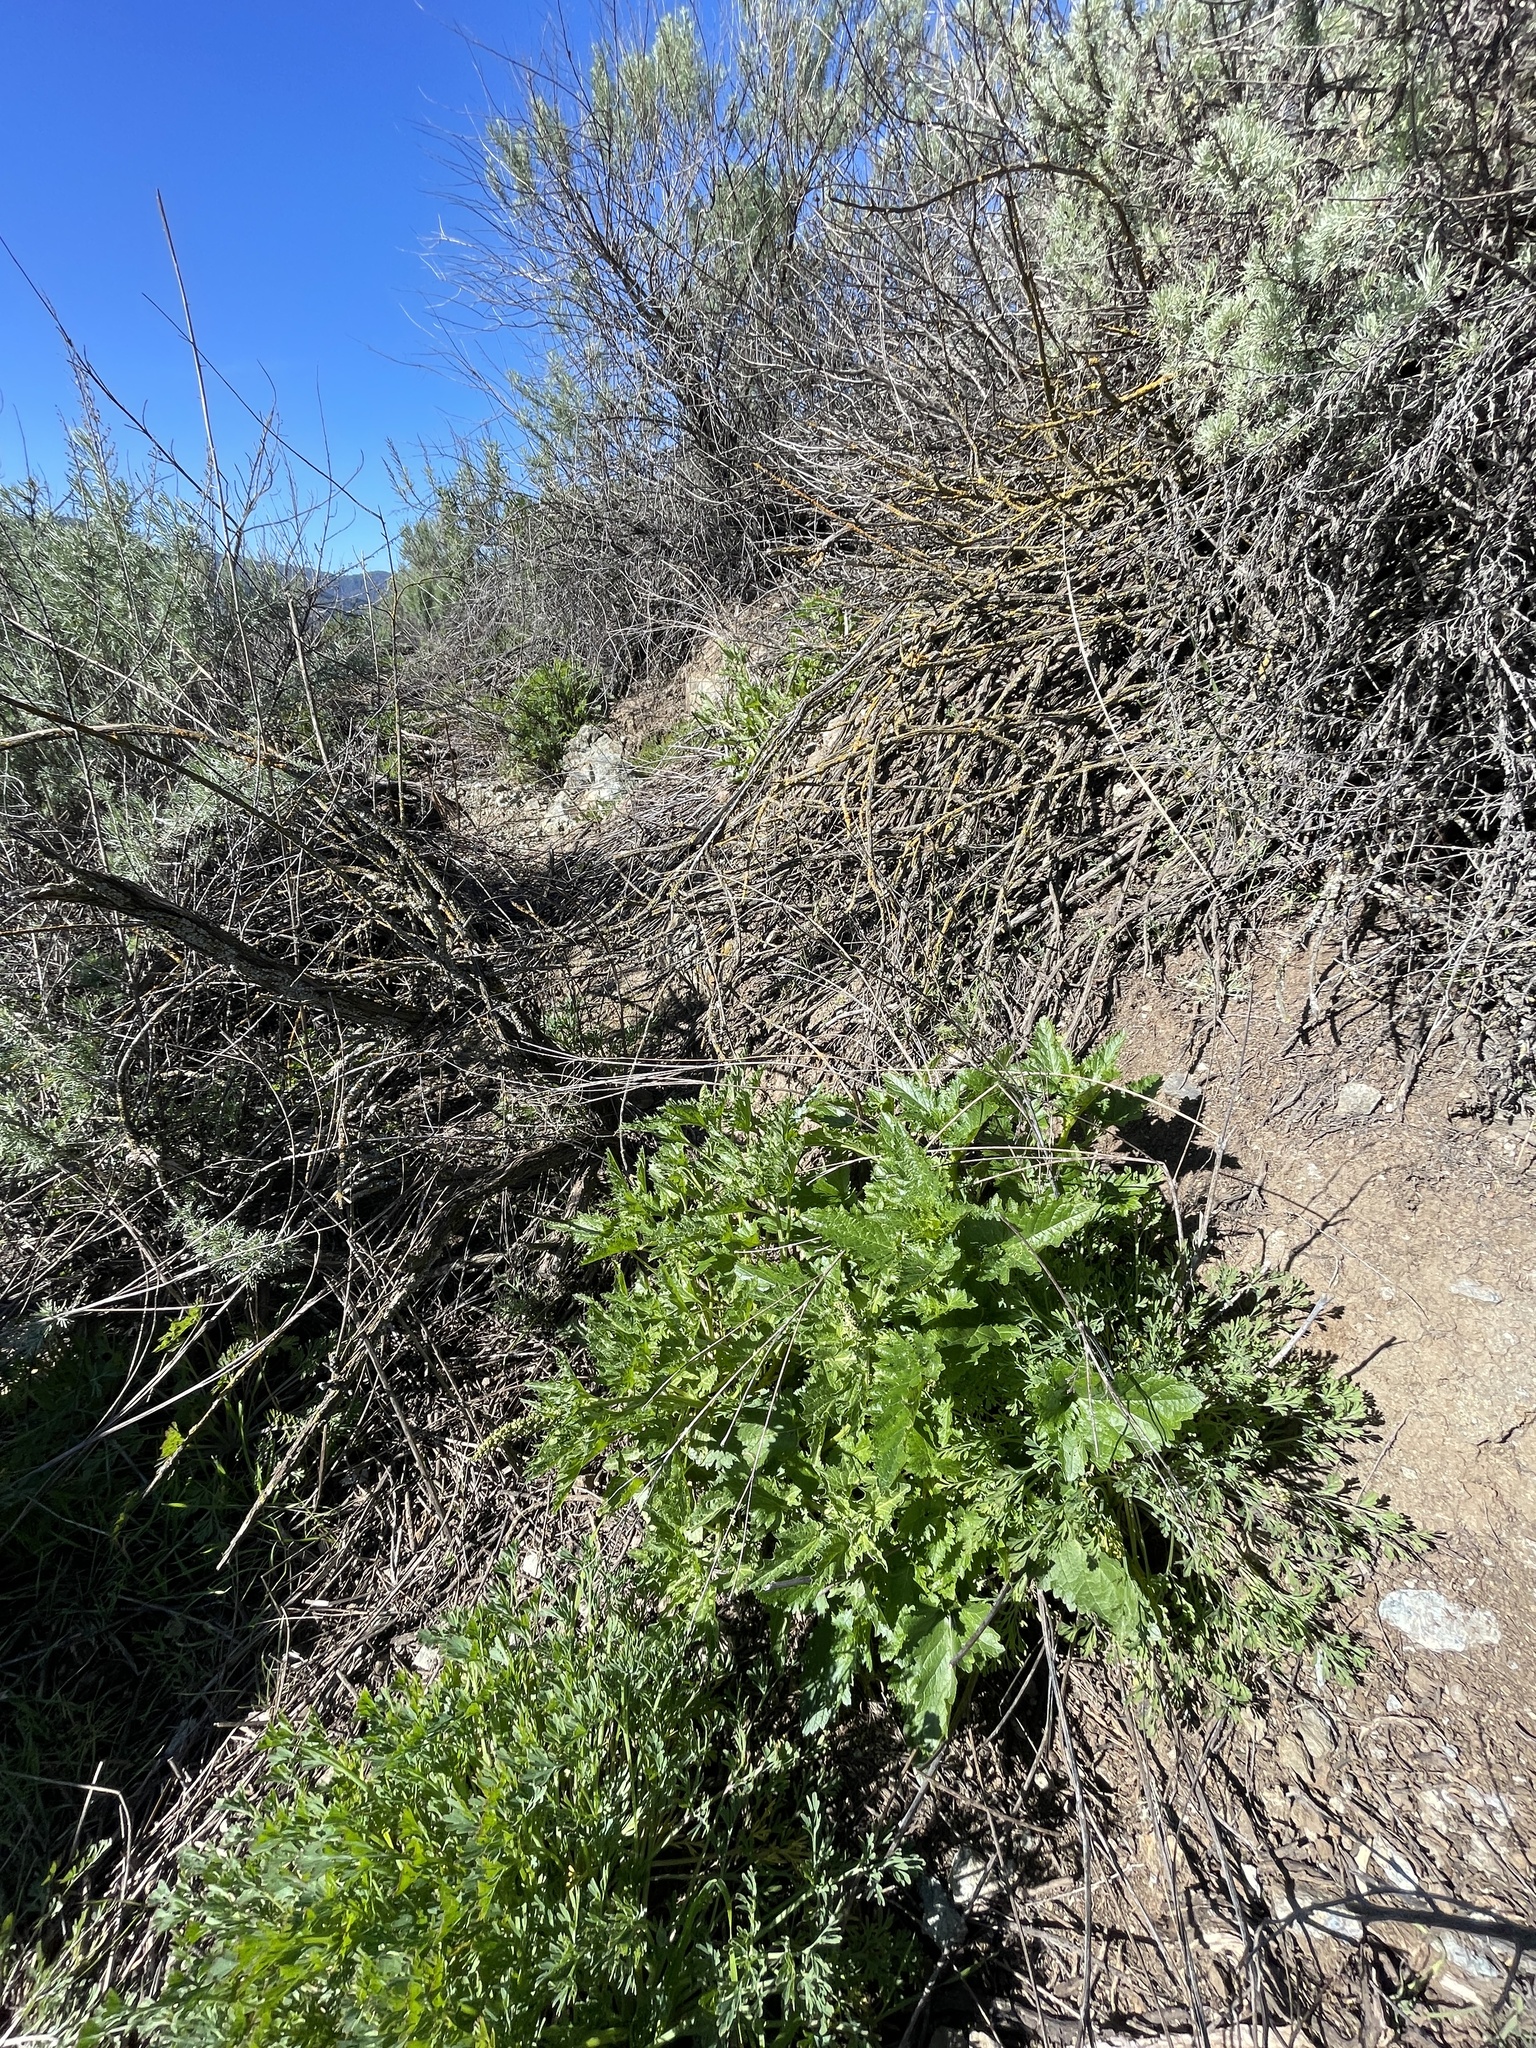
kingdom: Plantae
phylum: Tracheophyta
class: Magnoliopsida
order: Caryophyllales
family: Amaranthaceae
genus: Blitum
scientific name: Blitum californicum
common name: California goosefoot
